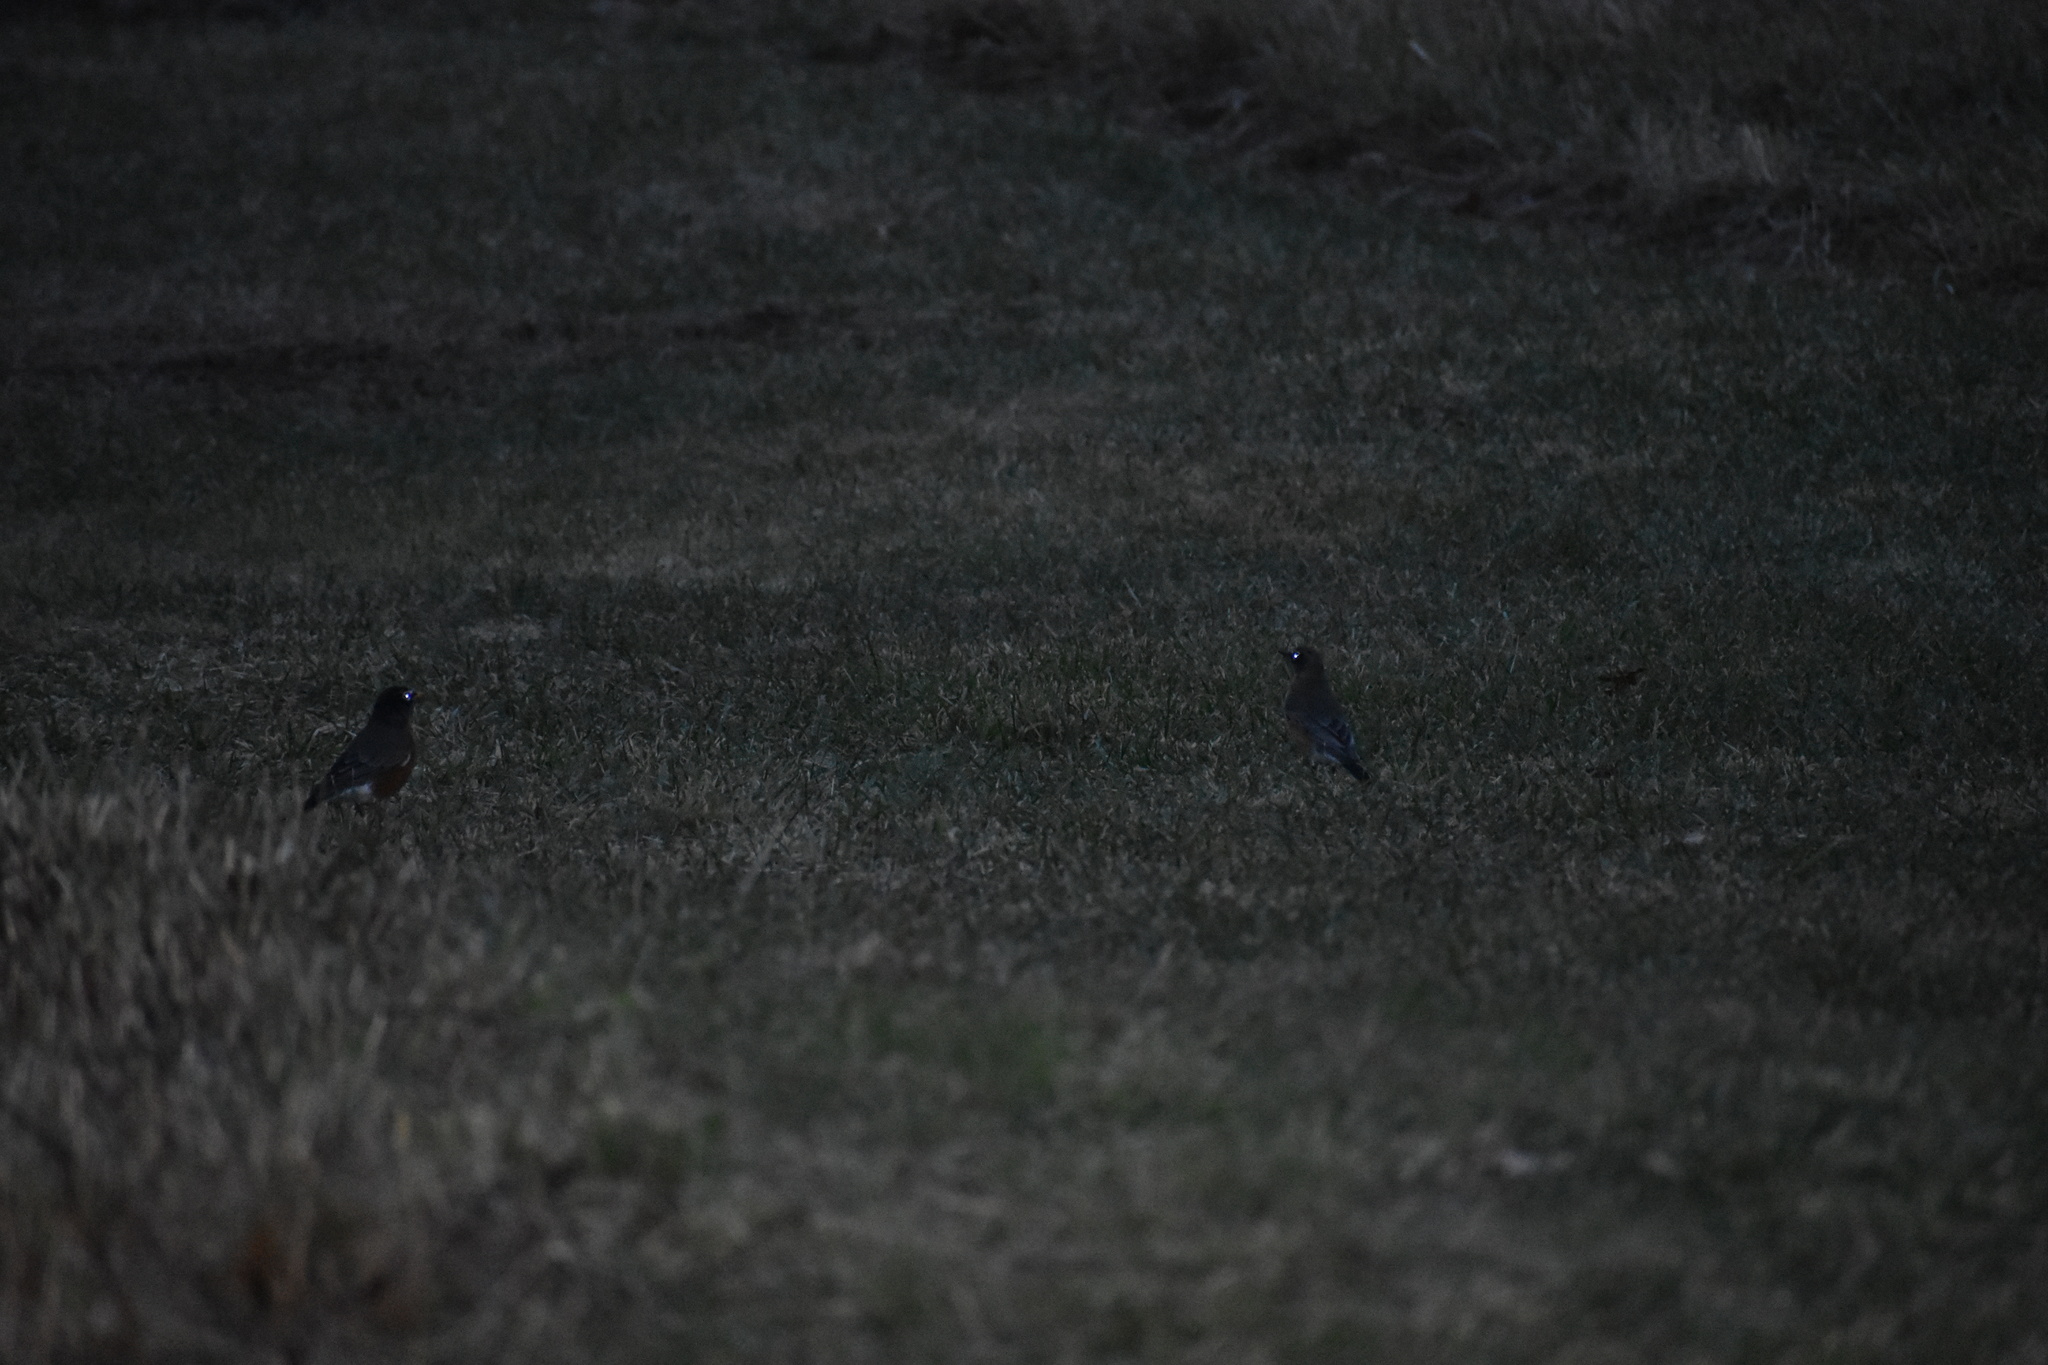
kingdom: Animalia
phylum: Chordata
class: Aves
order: Passeriformes
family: Turdidae
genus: Turdus
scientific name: Turdus migratorius
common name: American robin
